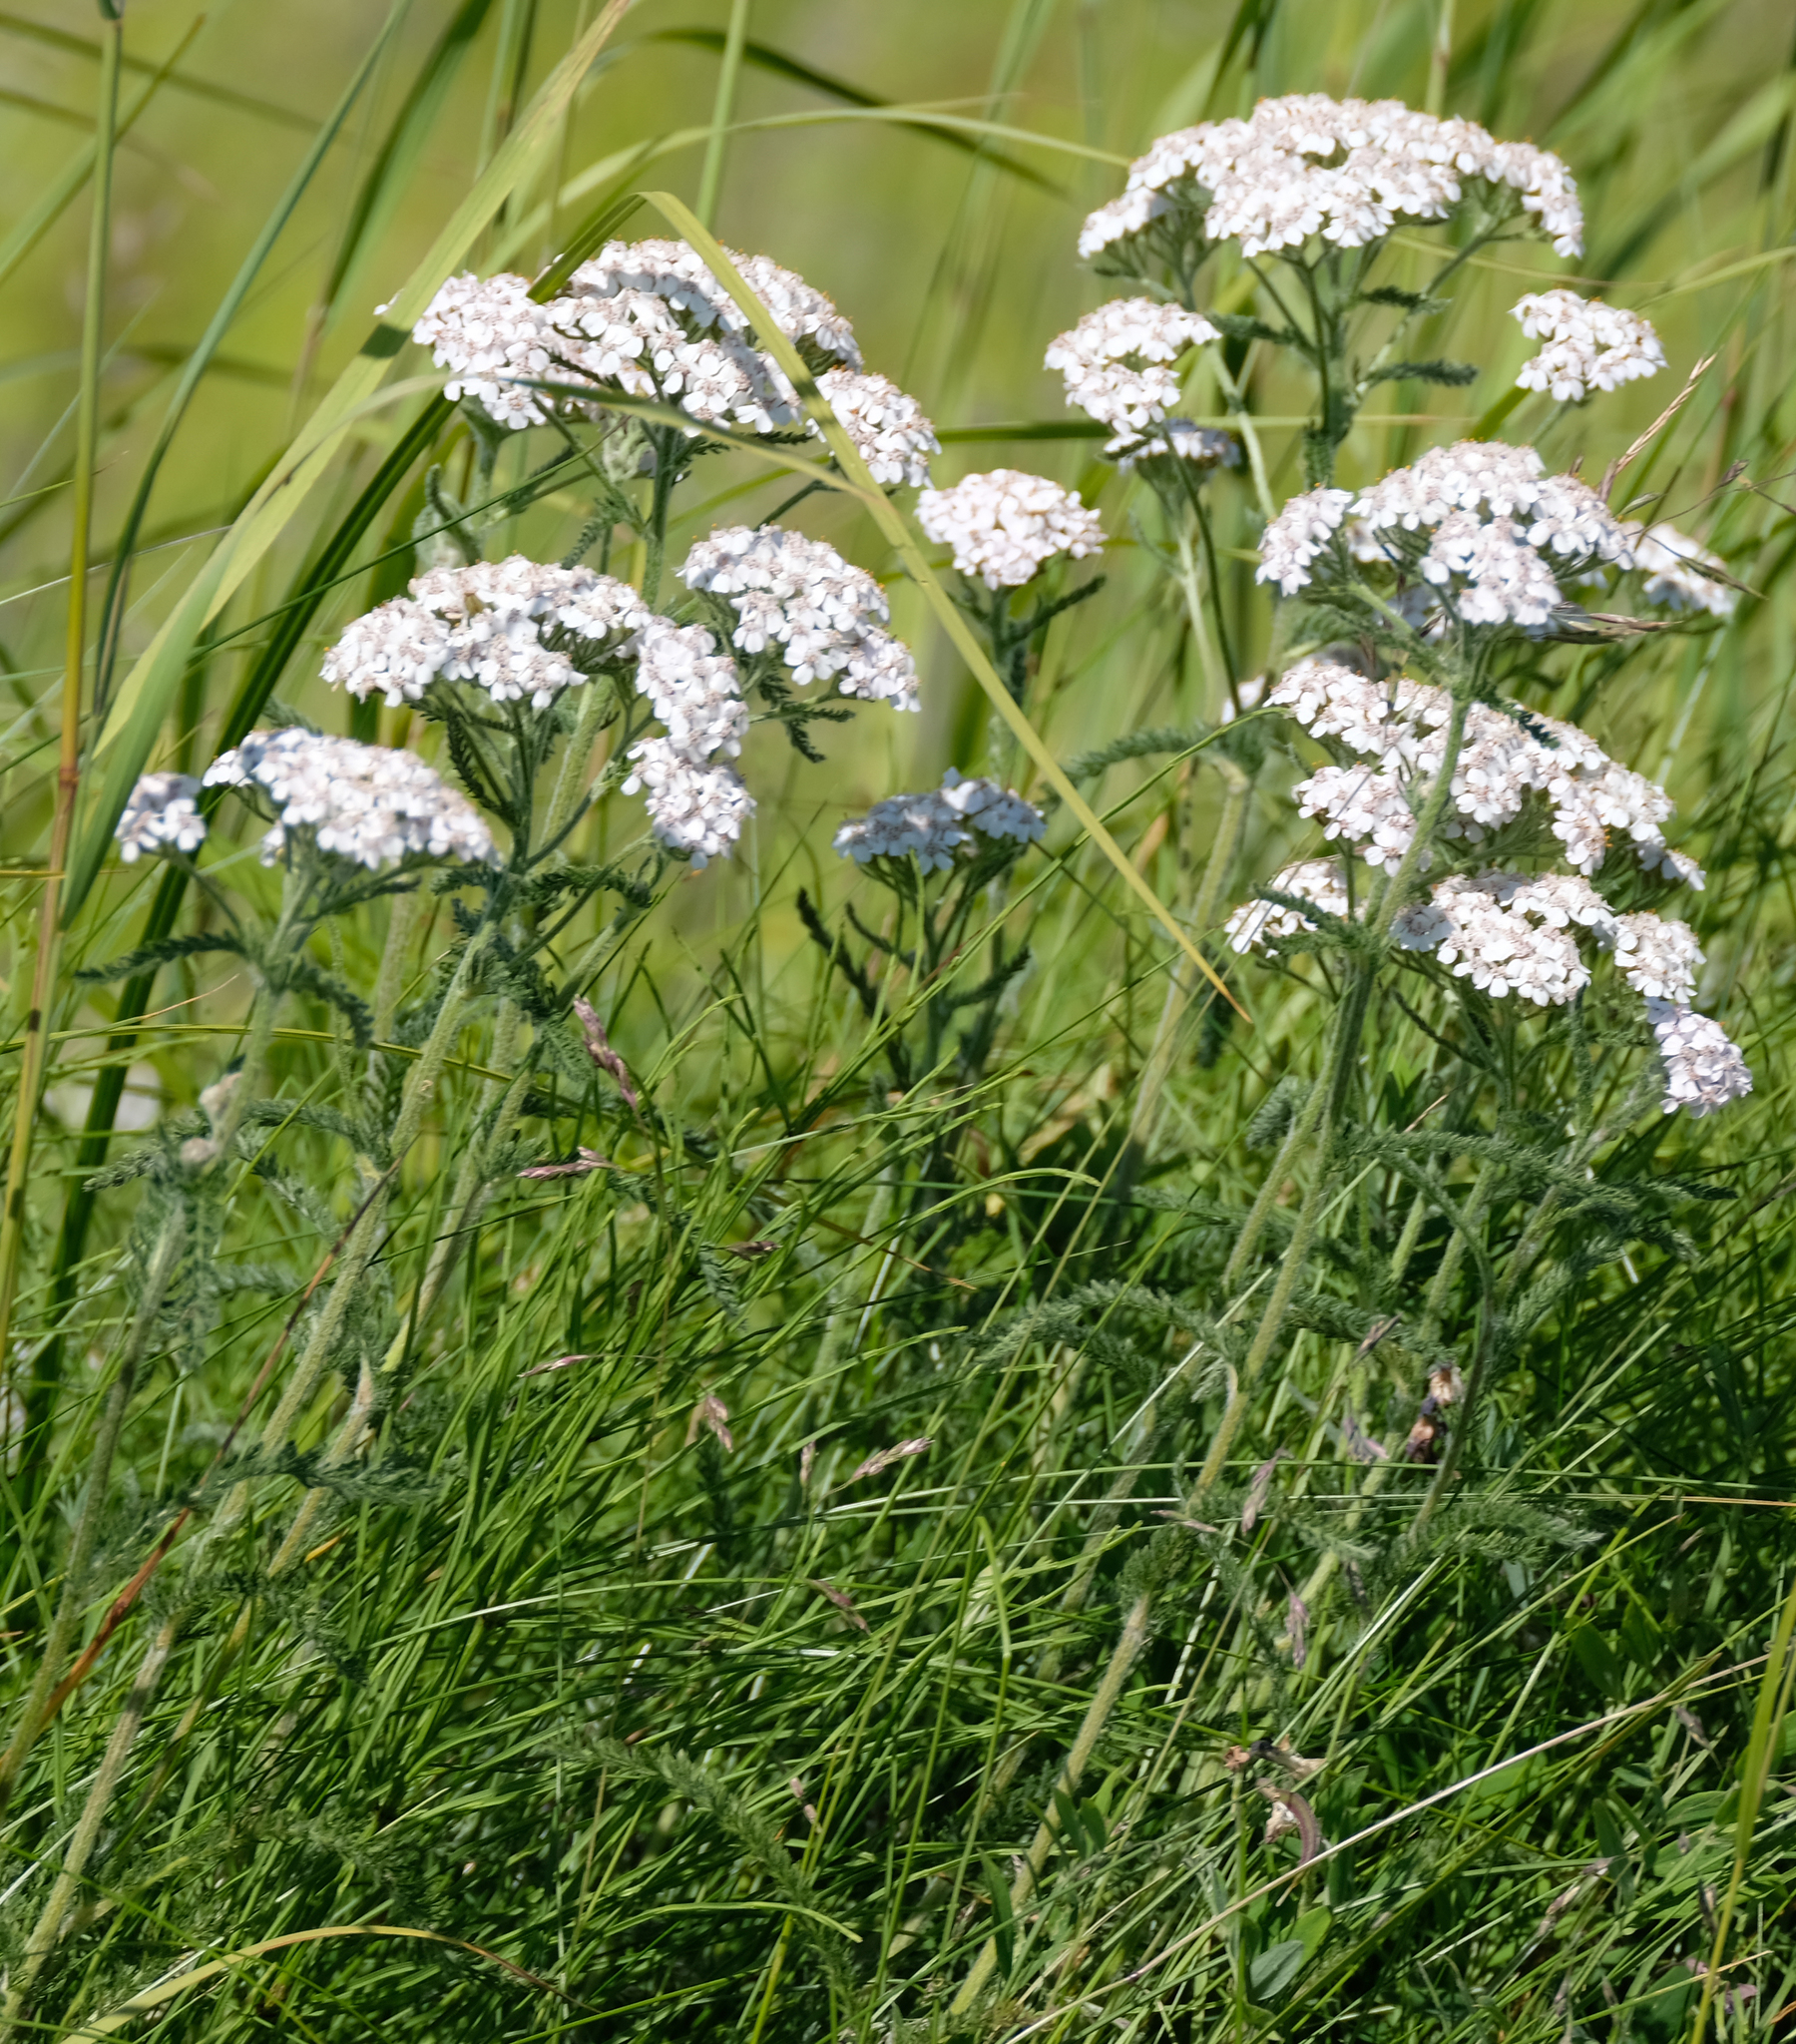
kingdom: Plantae
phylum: Tracheophyta
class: Magnoliopsida
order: Asterales
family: Asteraceae
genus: Achillea
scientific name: Achillea millefolium
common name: Yarrow
